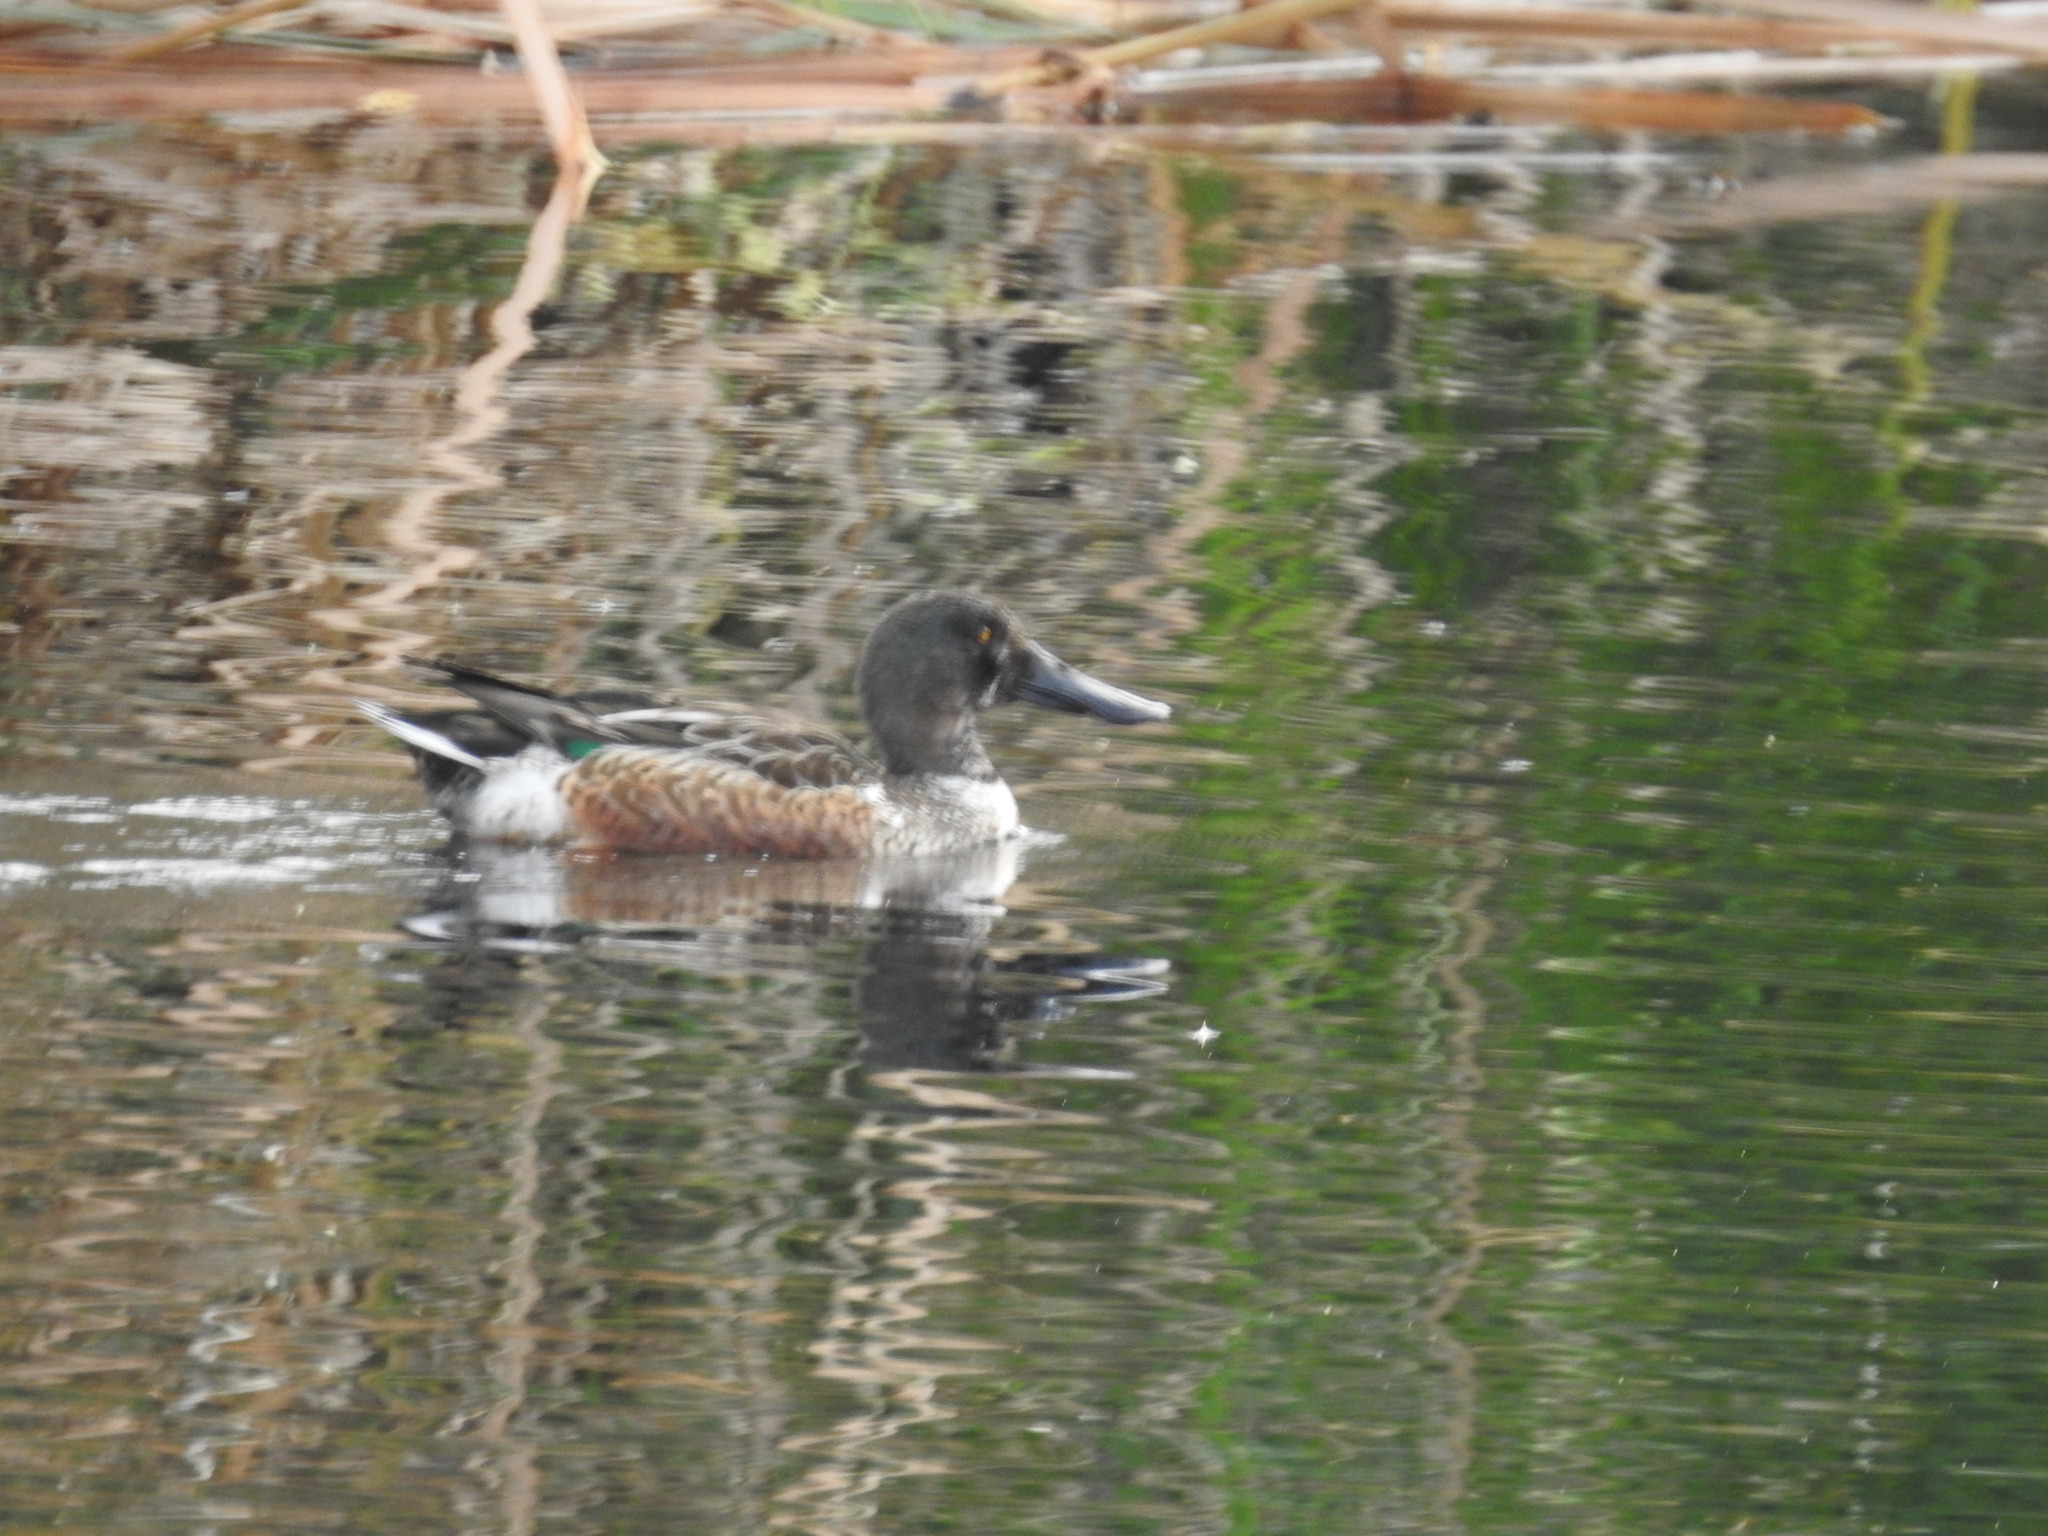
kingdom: Animalia
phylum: Chordata
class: Aves
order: Anseriformes
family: Anatidae
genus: Spatula
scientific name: Spatula clypeata
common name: Northern shoveler
